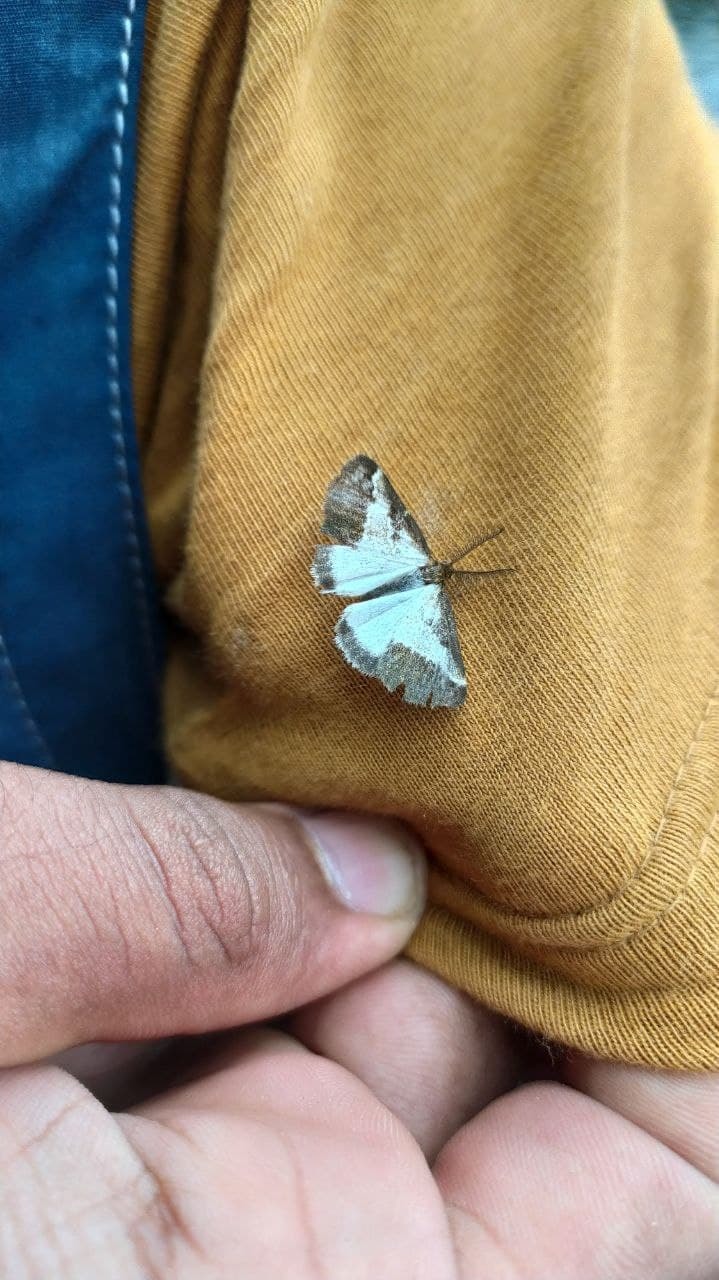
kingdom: Animalia
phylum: Arthropoda
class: Insecta
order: Lepidoptera
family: Erebidae
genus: Aroa
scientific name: Aroa cambelli
